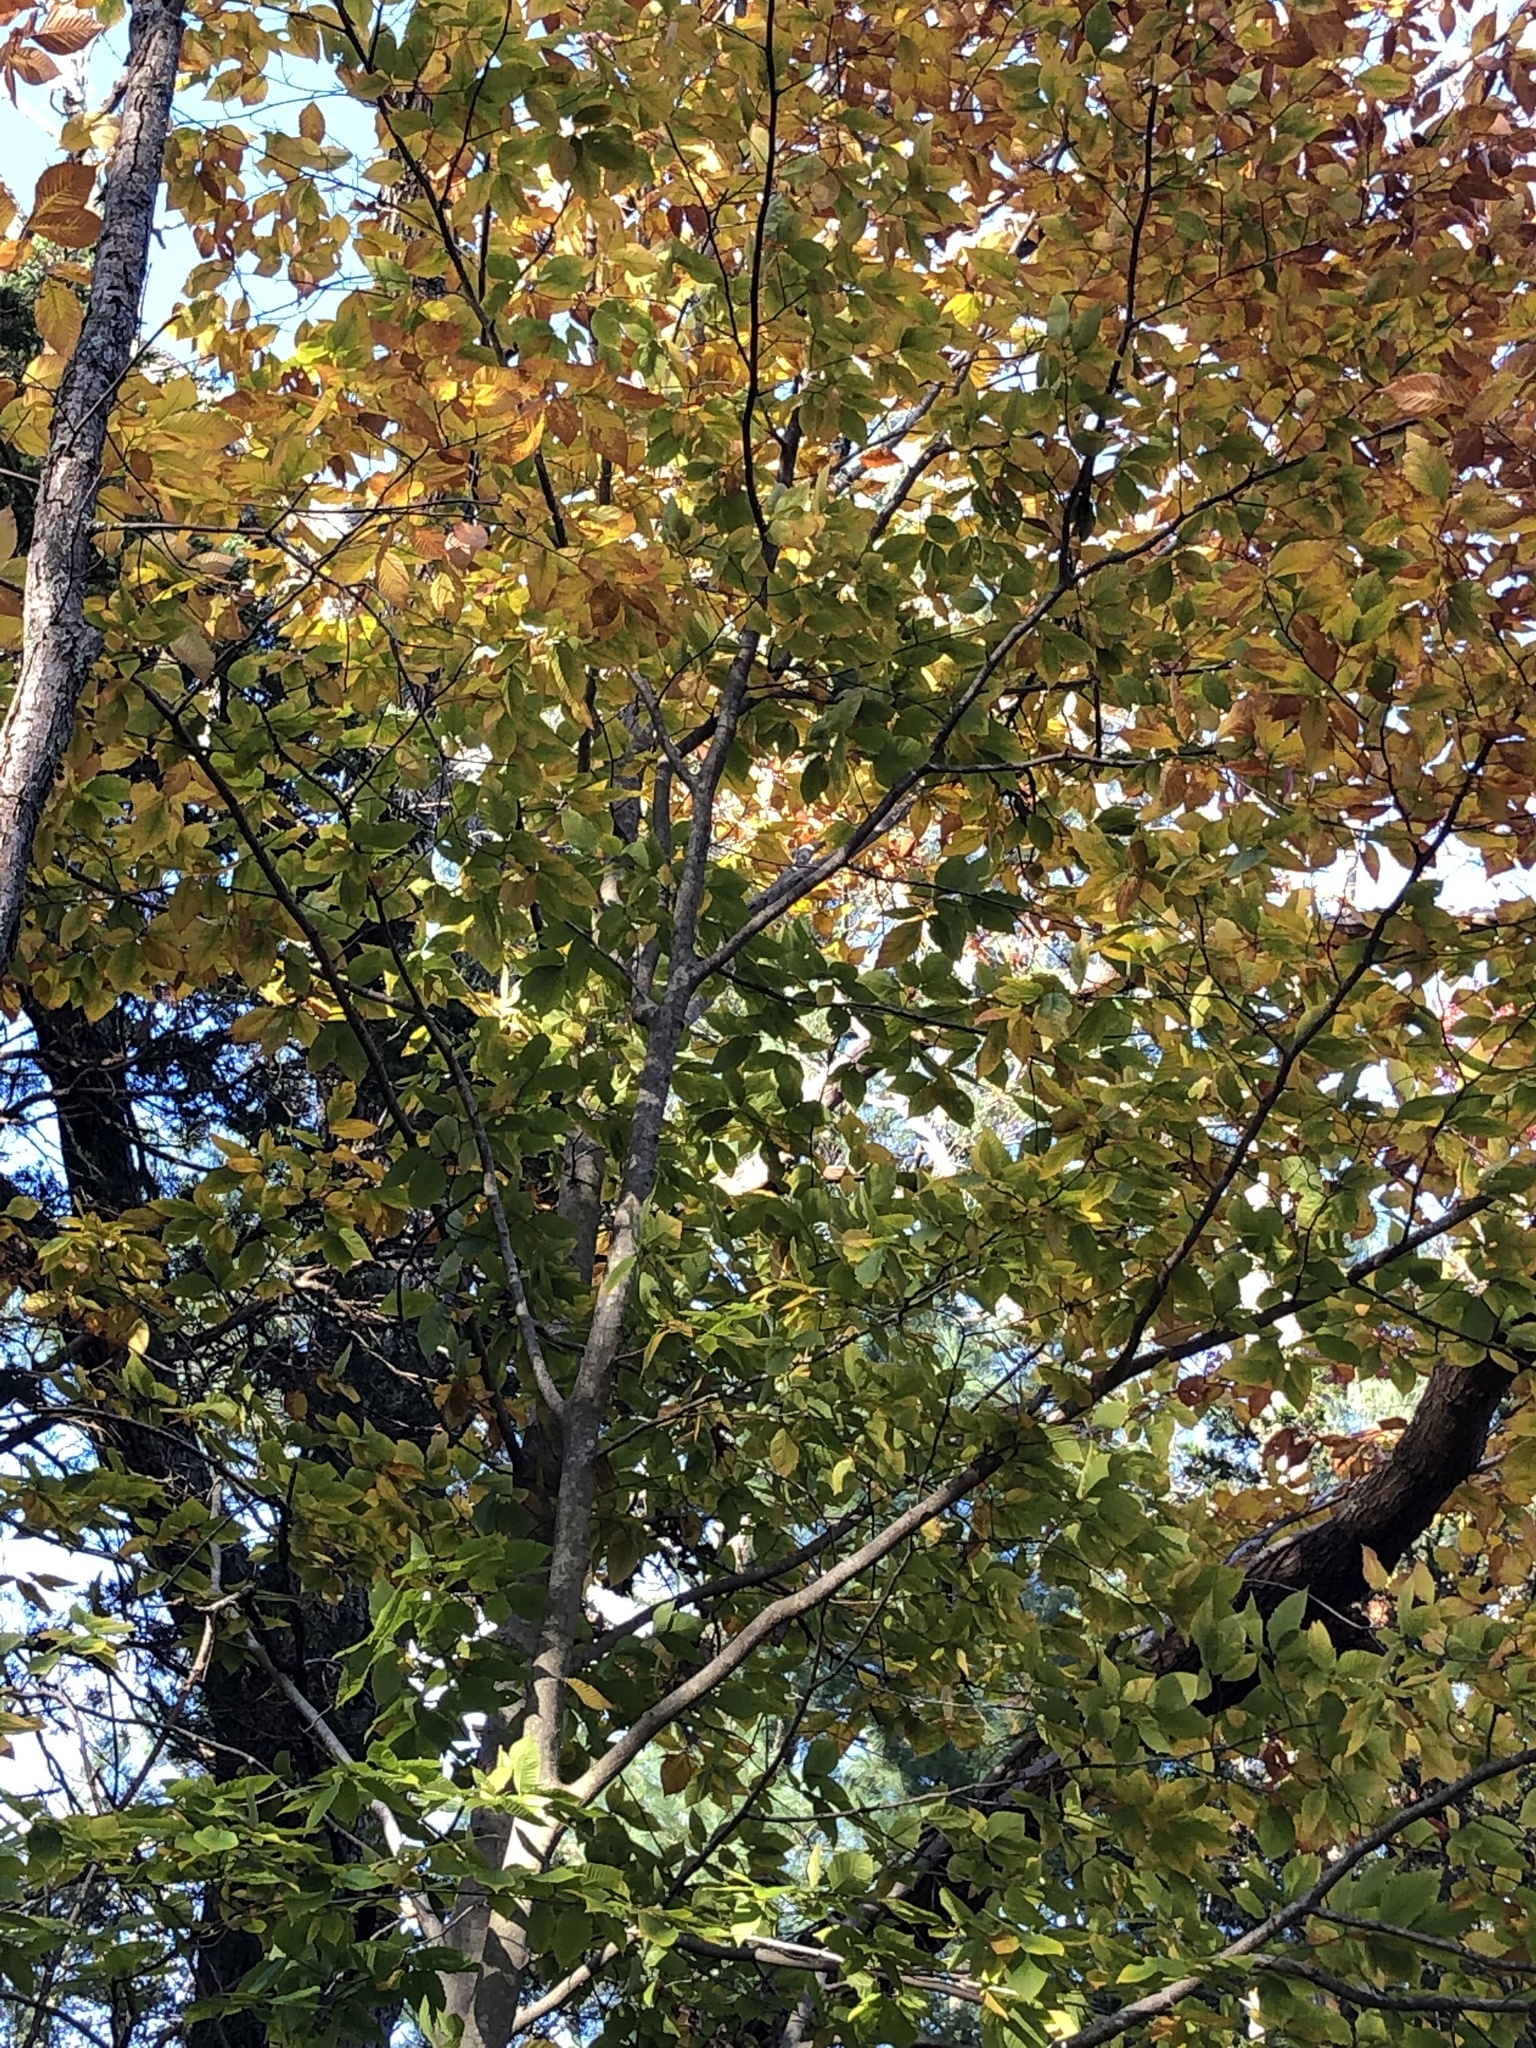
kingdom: Plantae
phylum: Tracheophyta
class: Magnoliopsida
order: Fagales
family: Fagaceae
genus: Fagus
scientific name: Fagus grandifolia
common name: American beech
